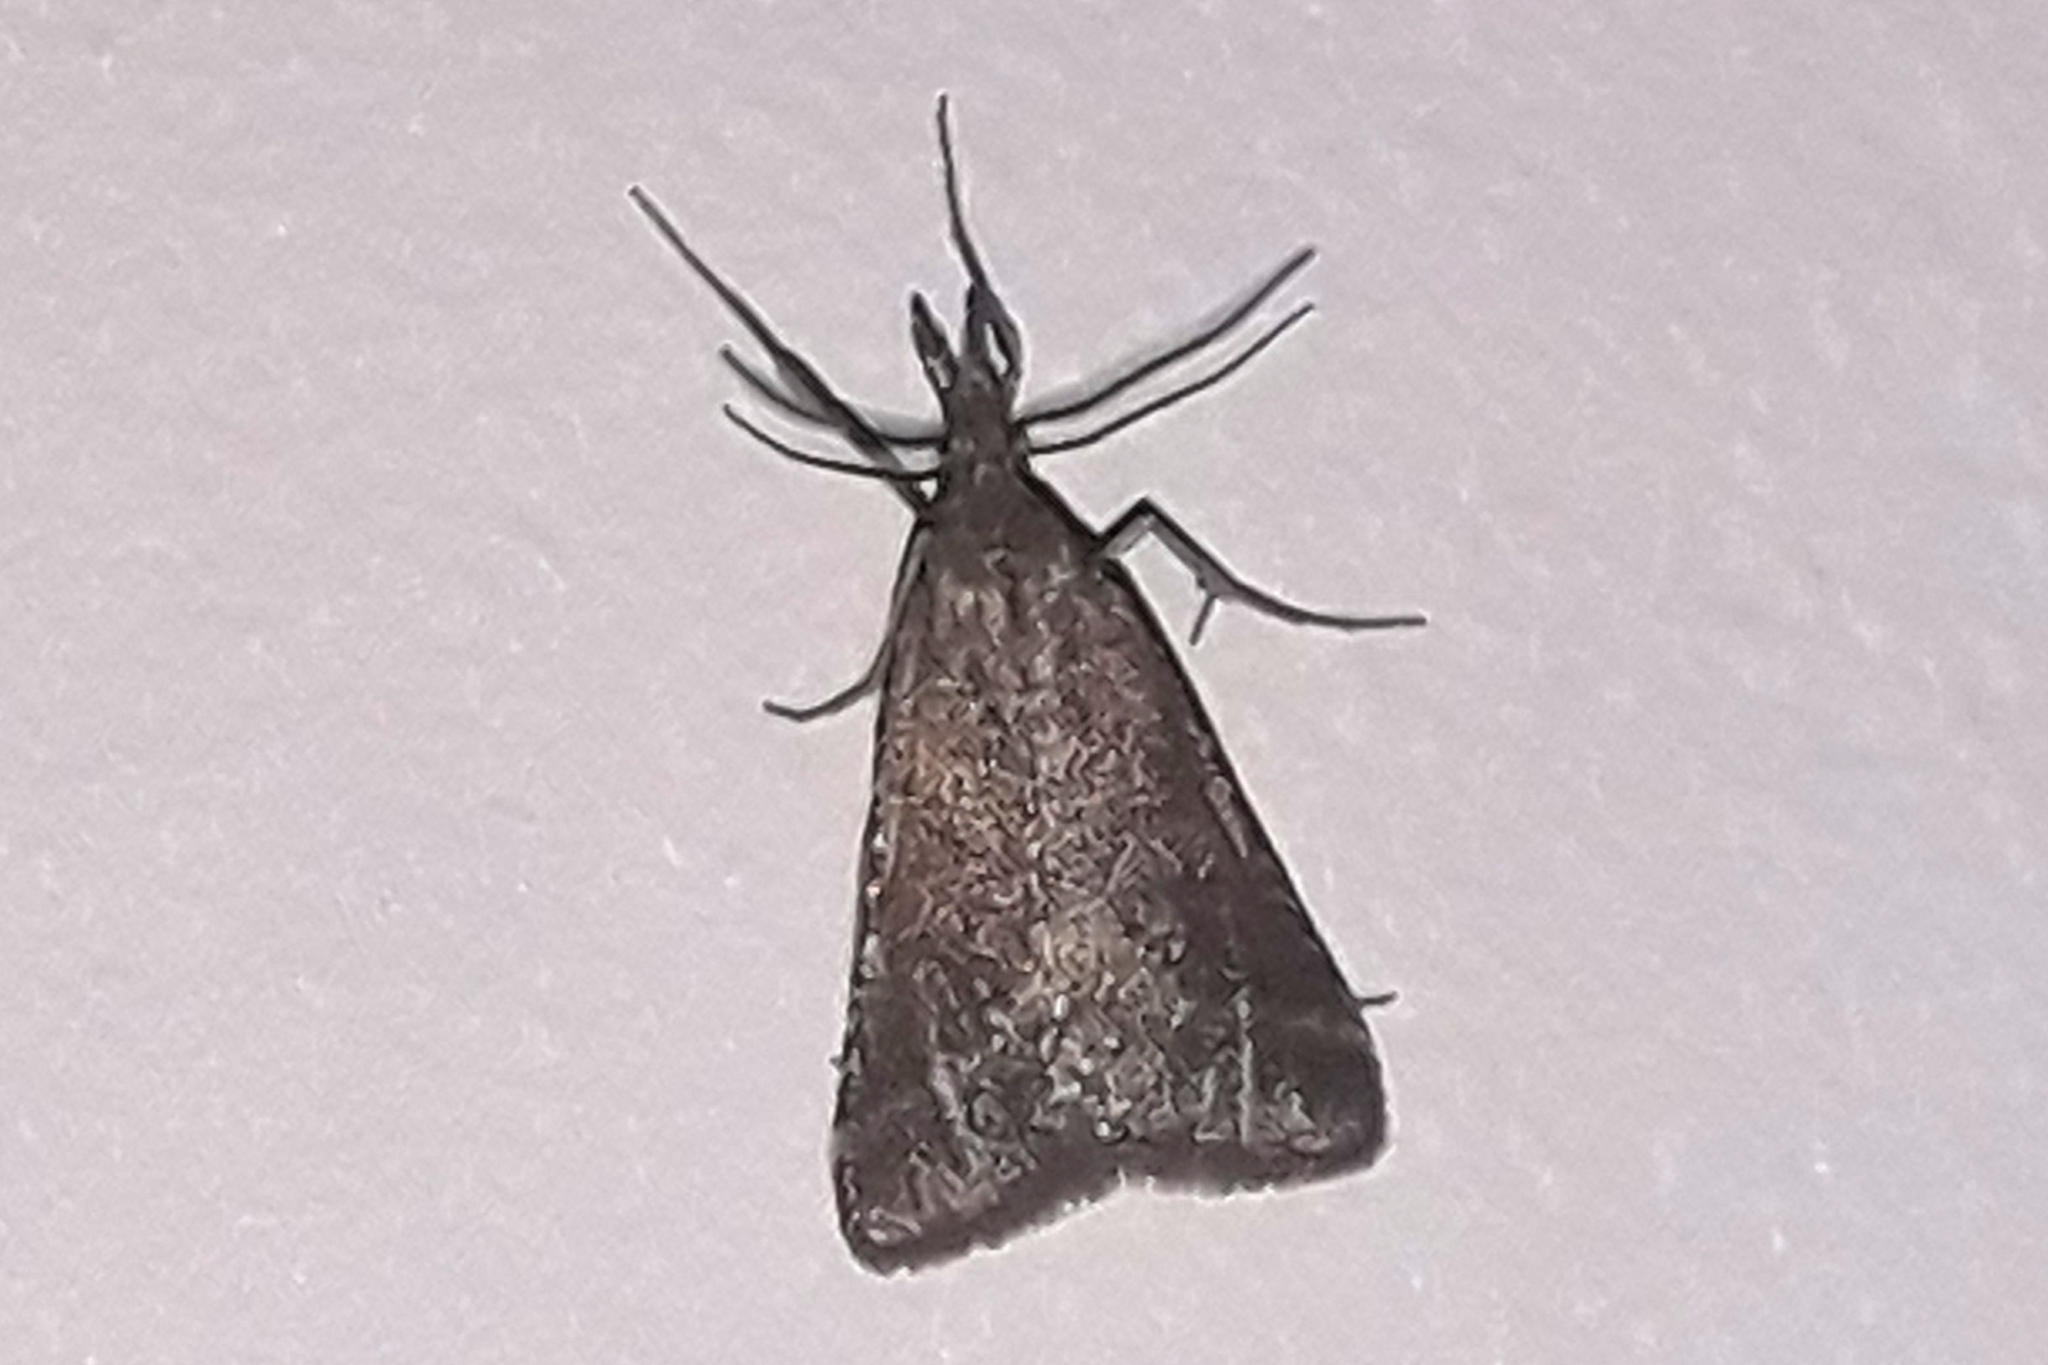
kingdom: Animalia
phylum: Arthropoda
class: Insecta
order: Lepidoptera
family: Pyralidae
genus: Synaphe
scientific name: Synaphe punctalis
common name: Long-legged tabby
